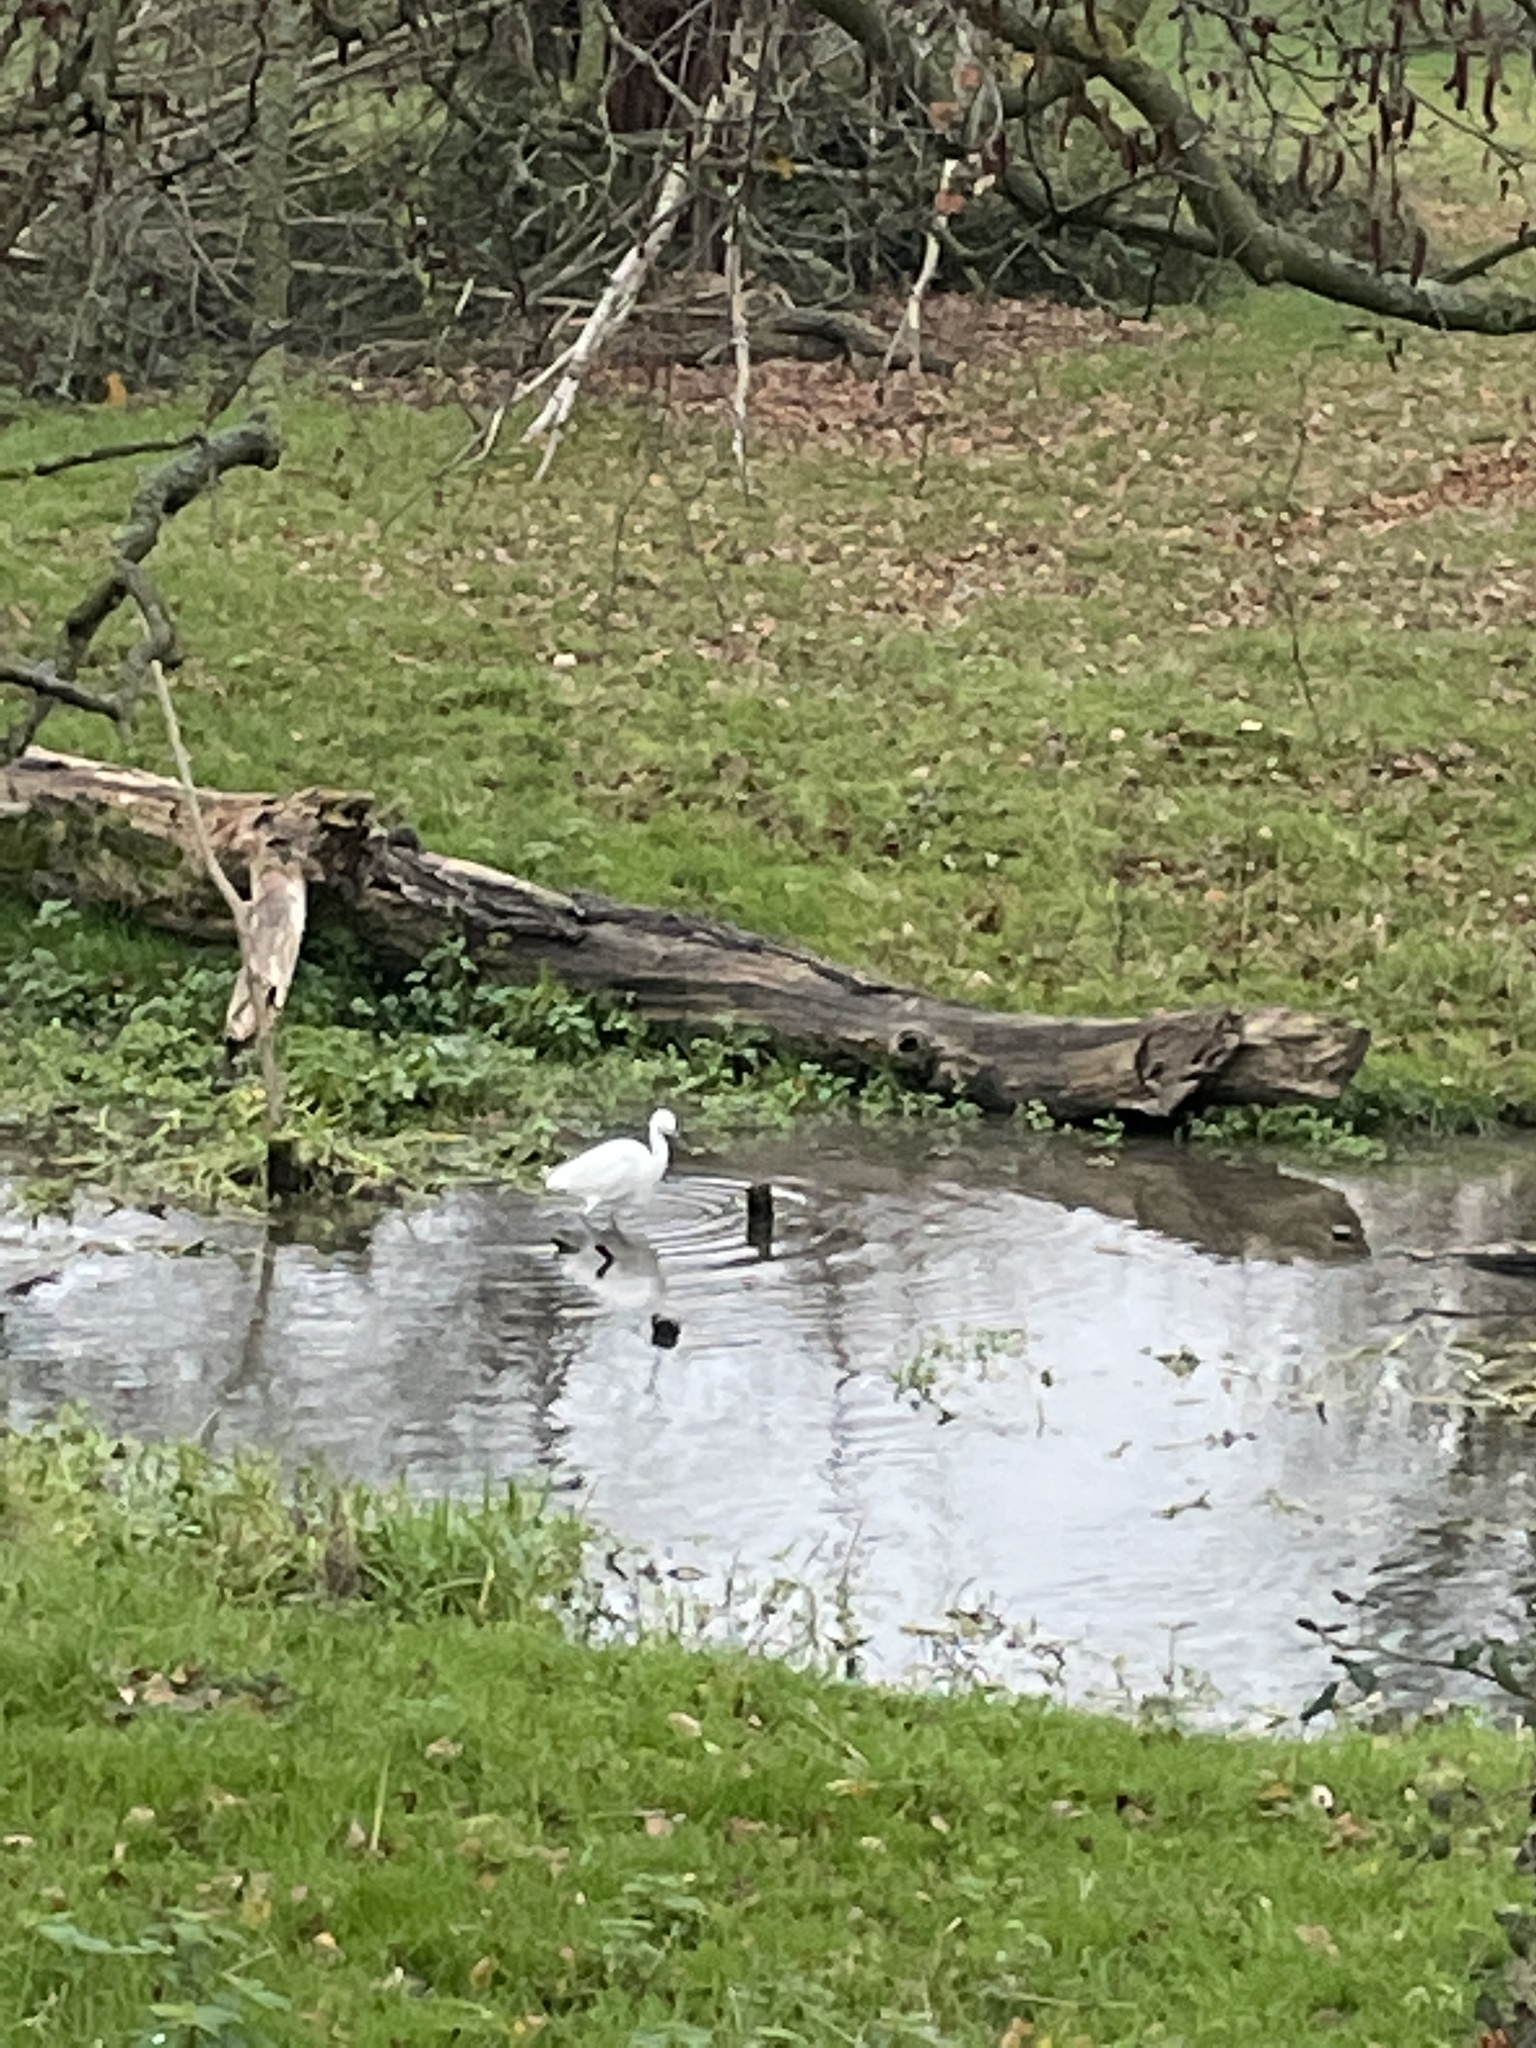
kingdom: Animalia
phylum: Chordata
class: Aves
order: Pelecaniformes
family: Ardeidae
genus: Egretta
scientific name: Egretta garzetta
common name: Little egret
